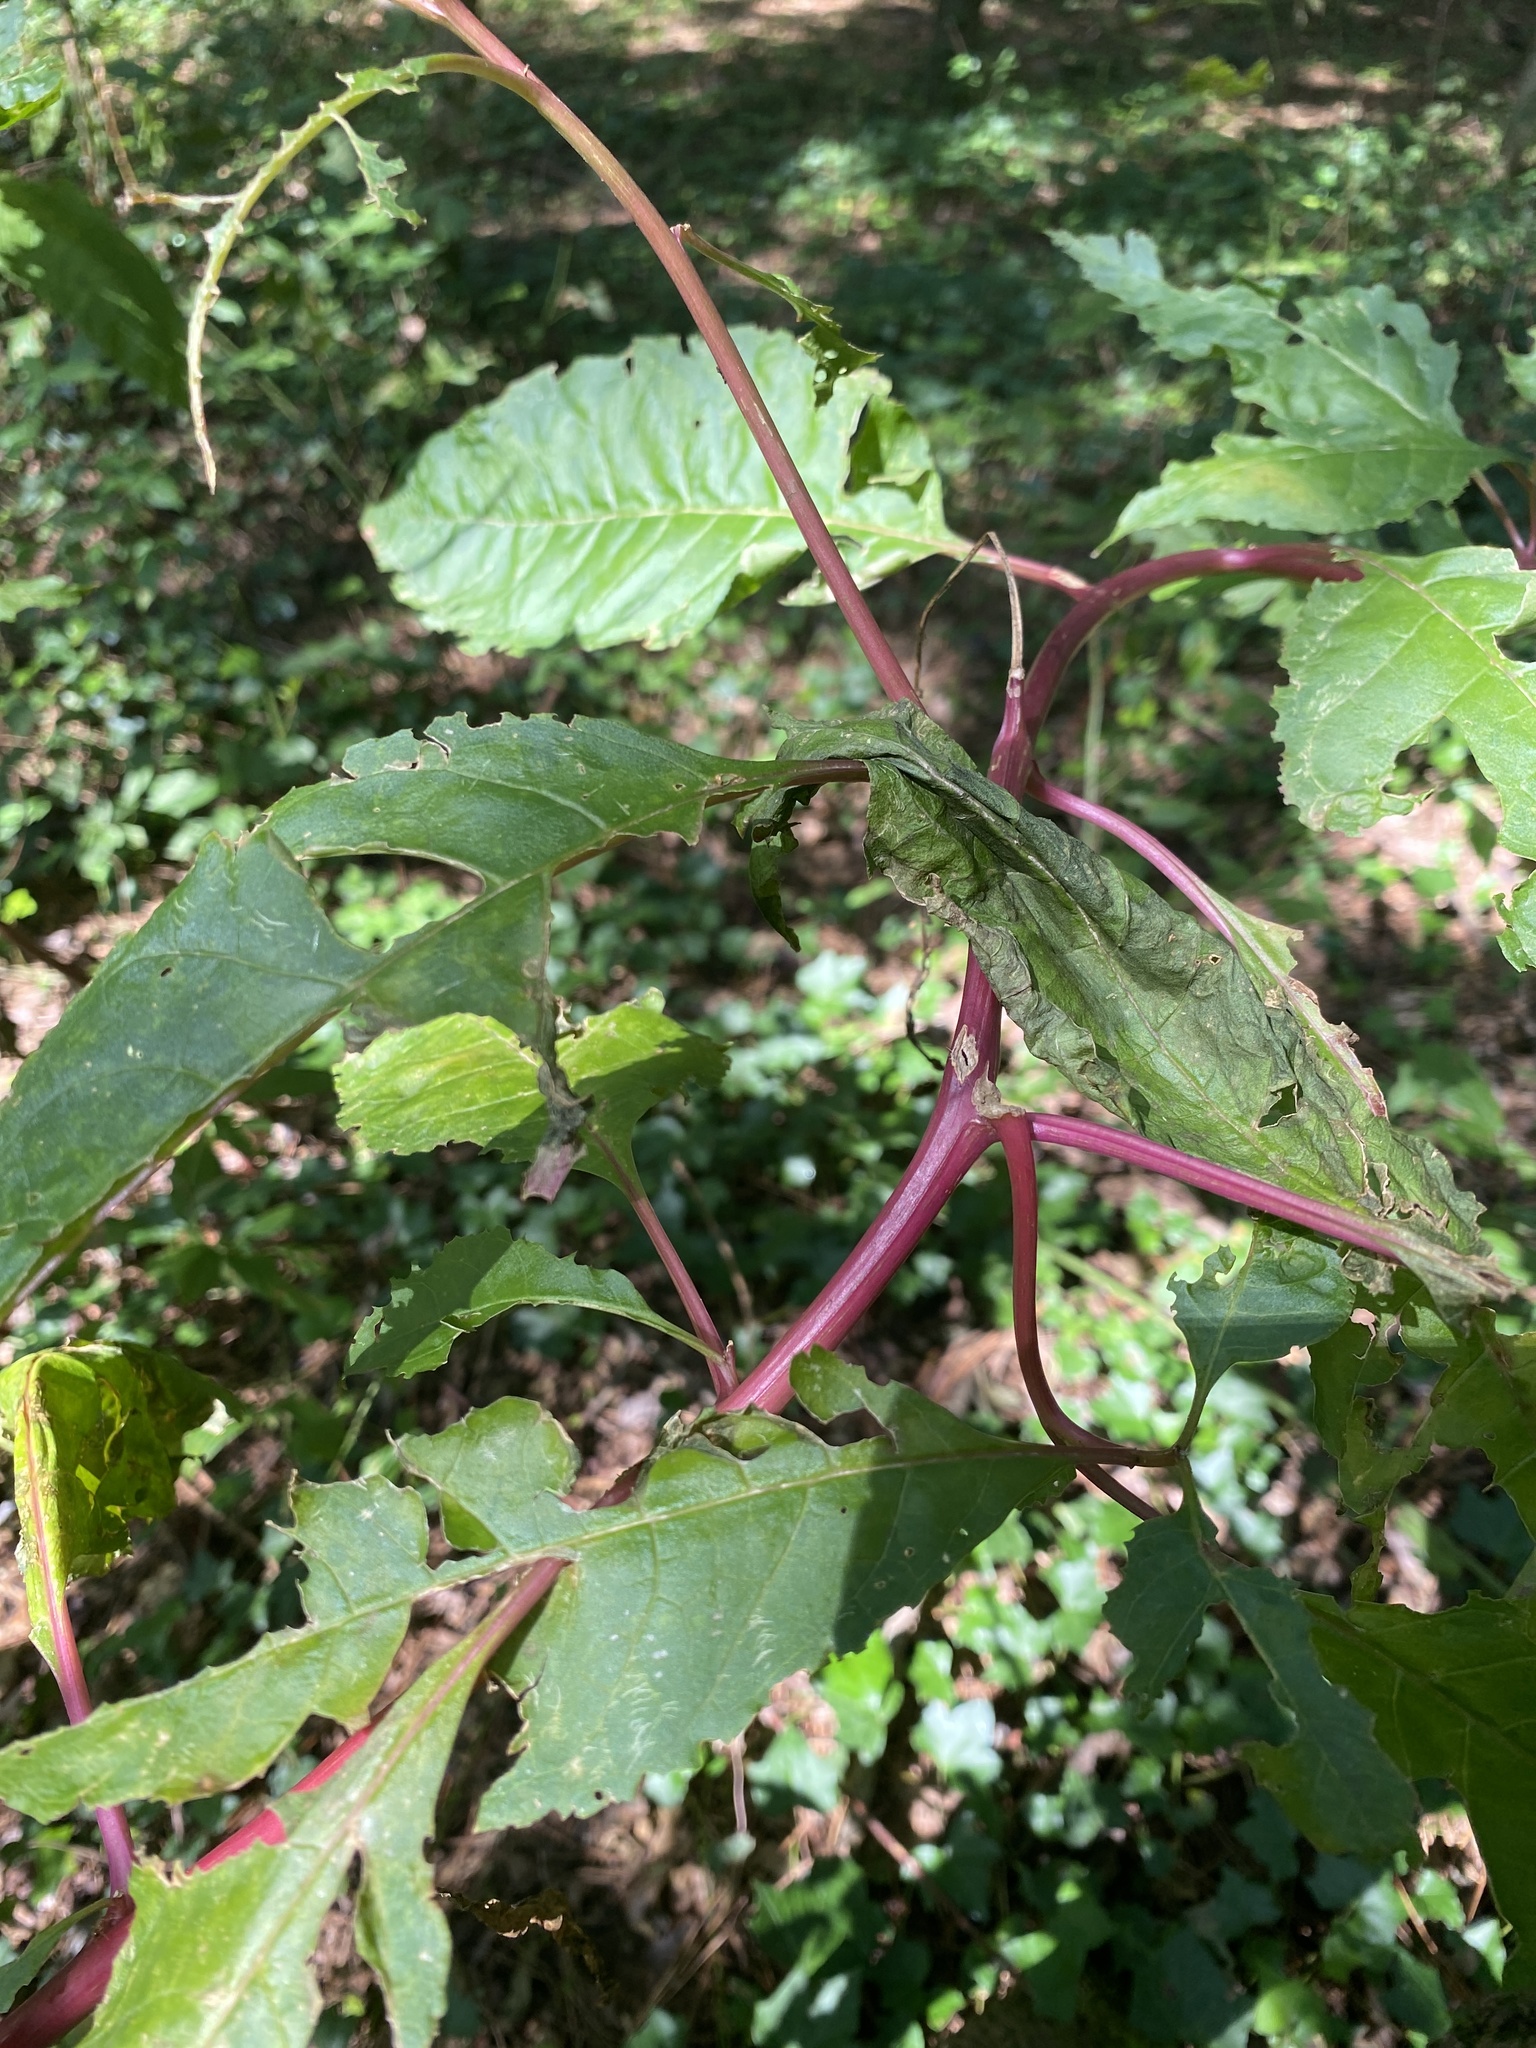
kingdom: Plantae
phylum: Tracheophyta
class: Magnoliopsida
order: Caryophyllales
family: Phytolaccaceae
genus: Phytolacca
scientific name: Phytolacca americana
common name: American pokeweed
